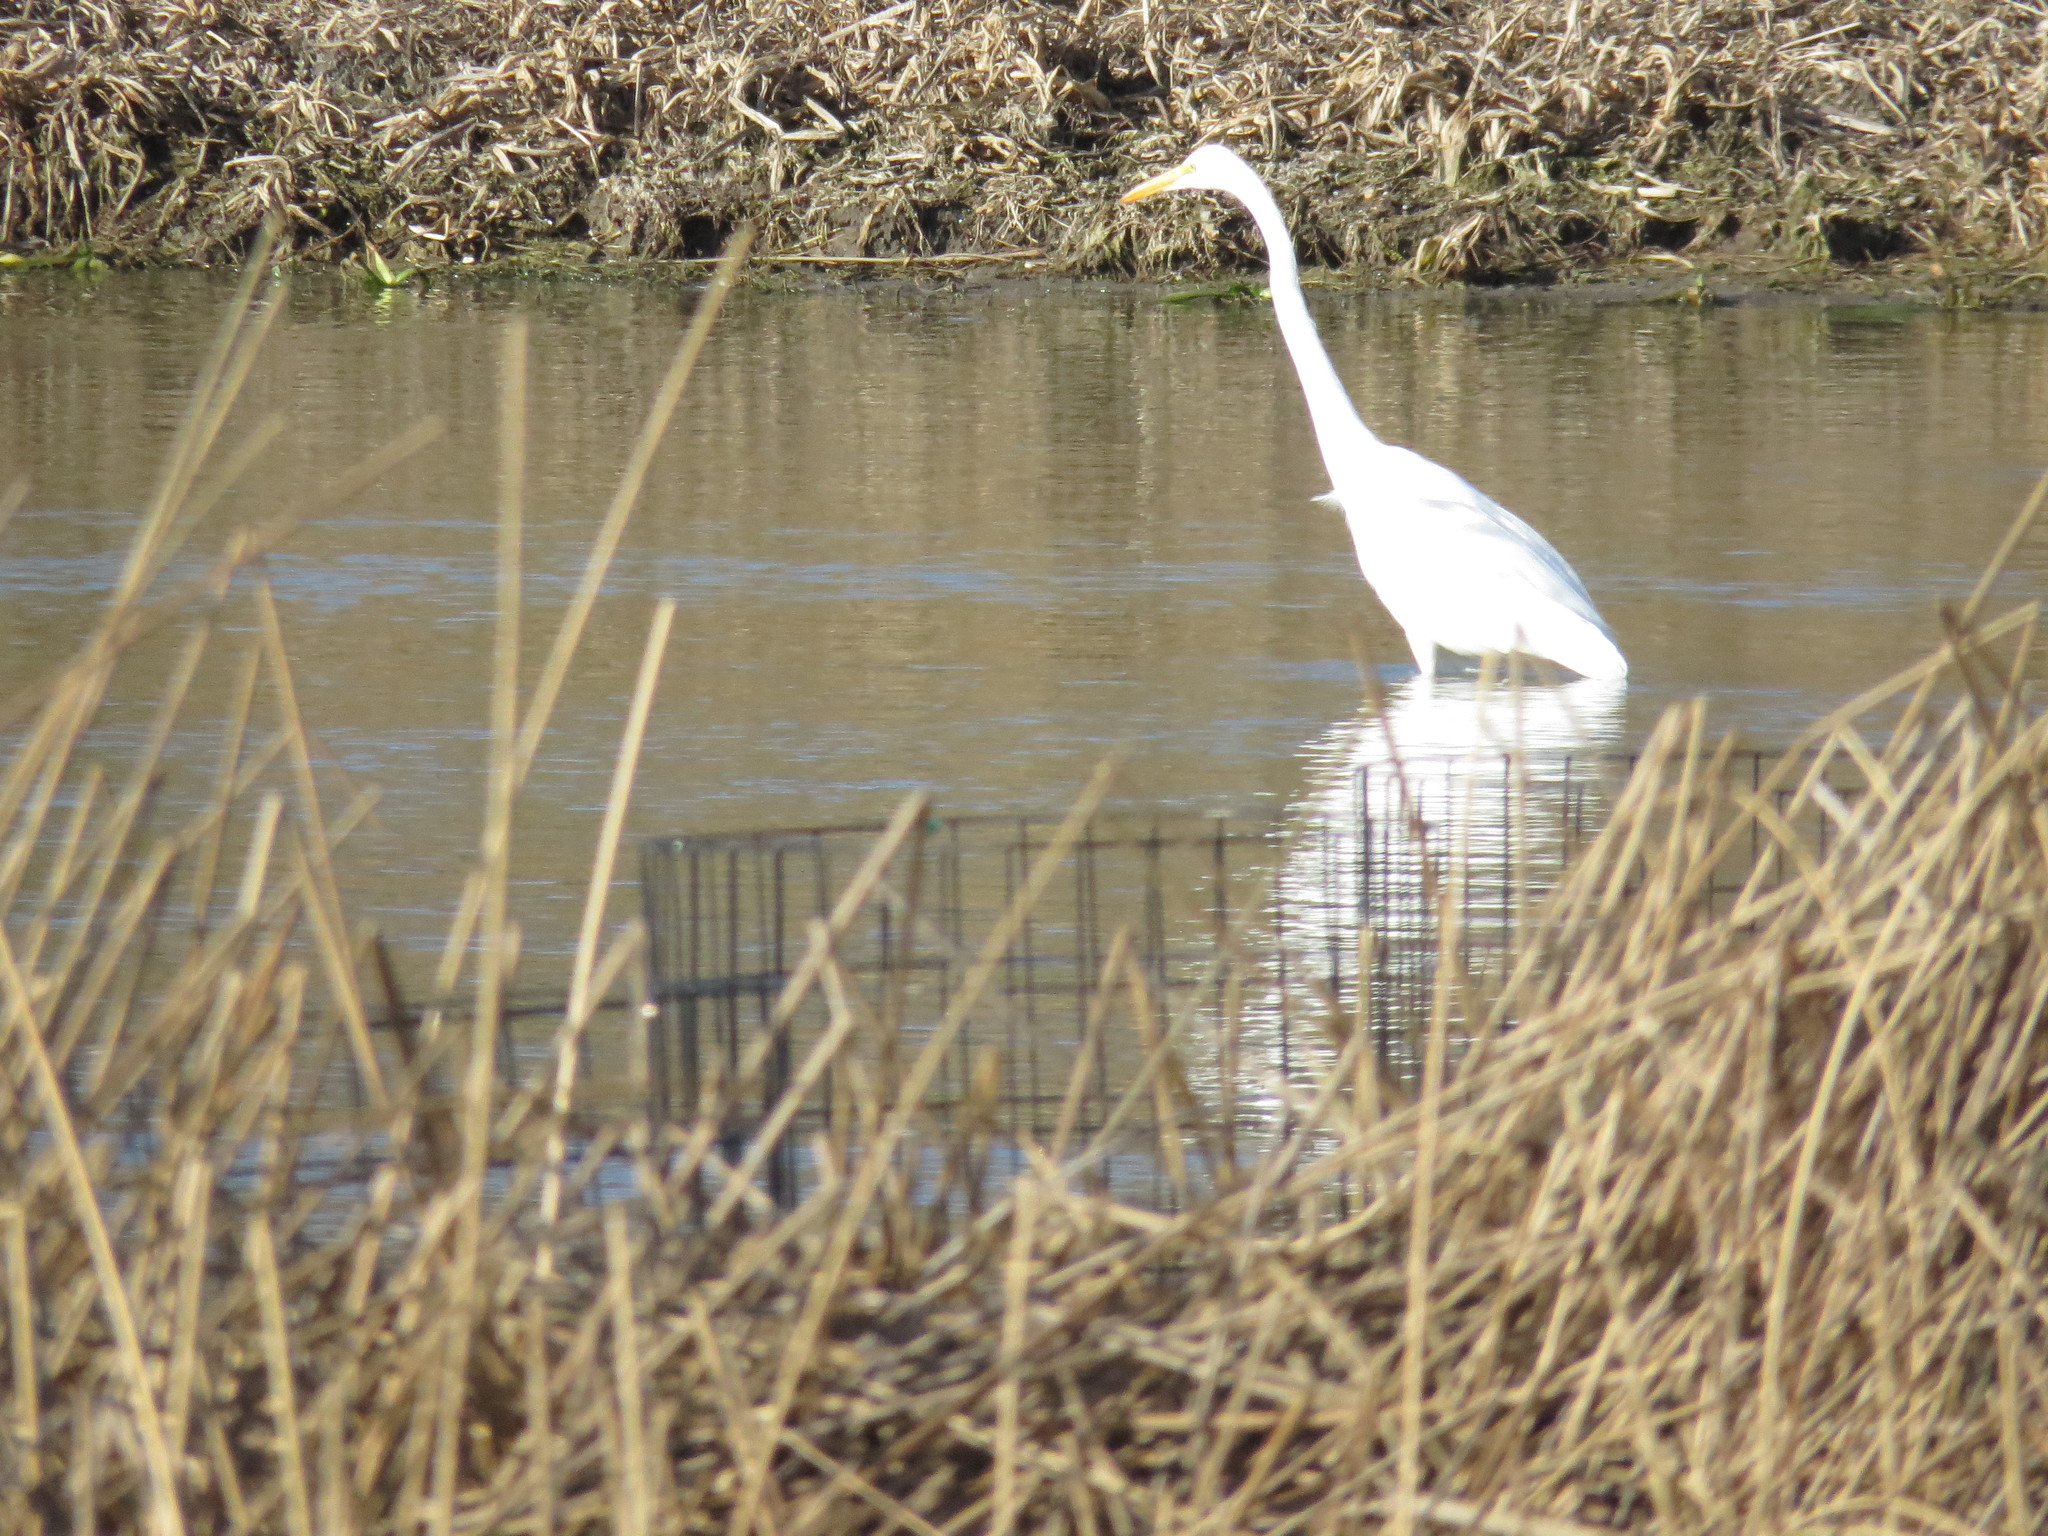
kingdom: Animalia
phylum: Chordata
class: Aves
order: Pelecaniformes
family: Ardeidae
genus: Ardea
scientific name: Ardea alba
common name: Great egret
